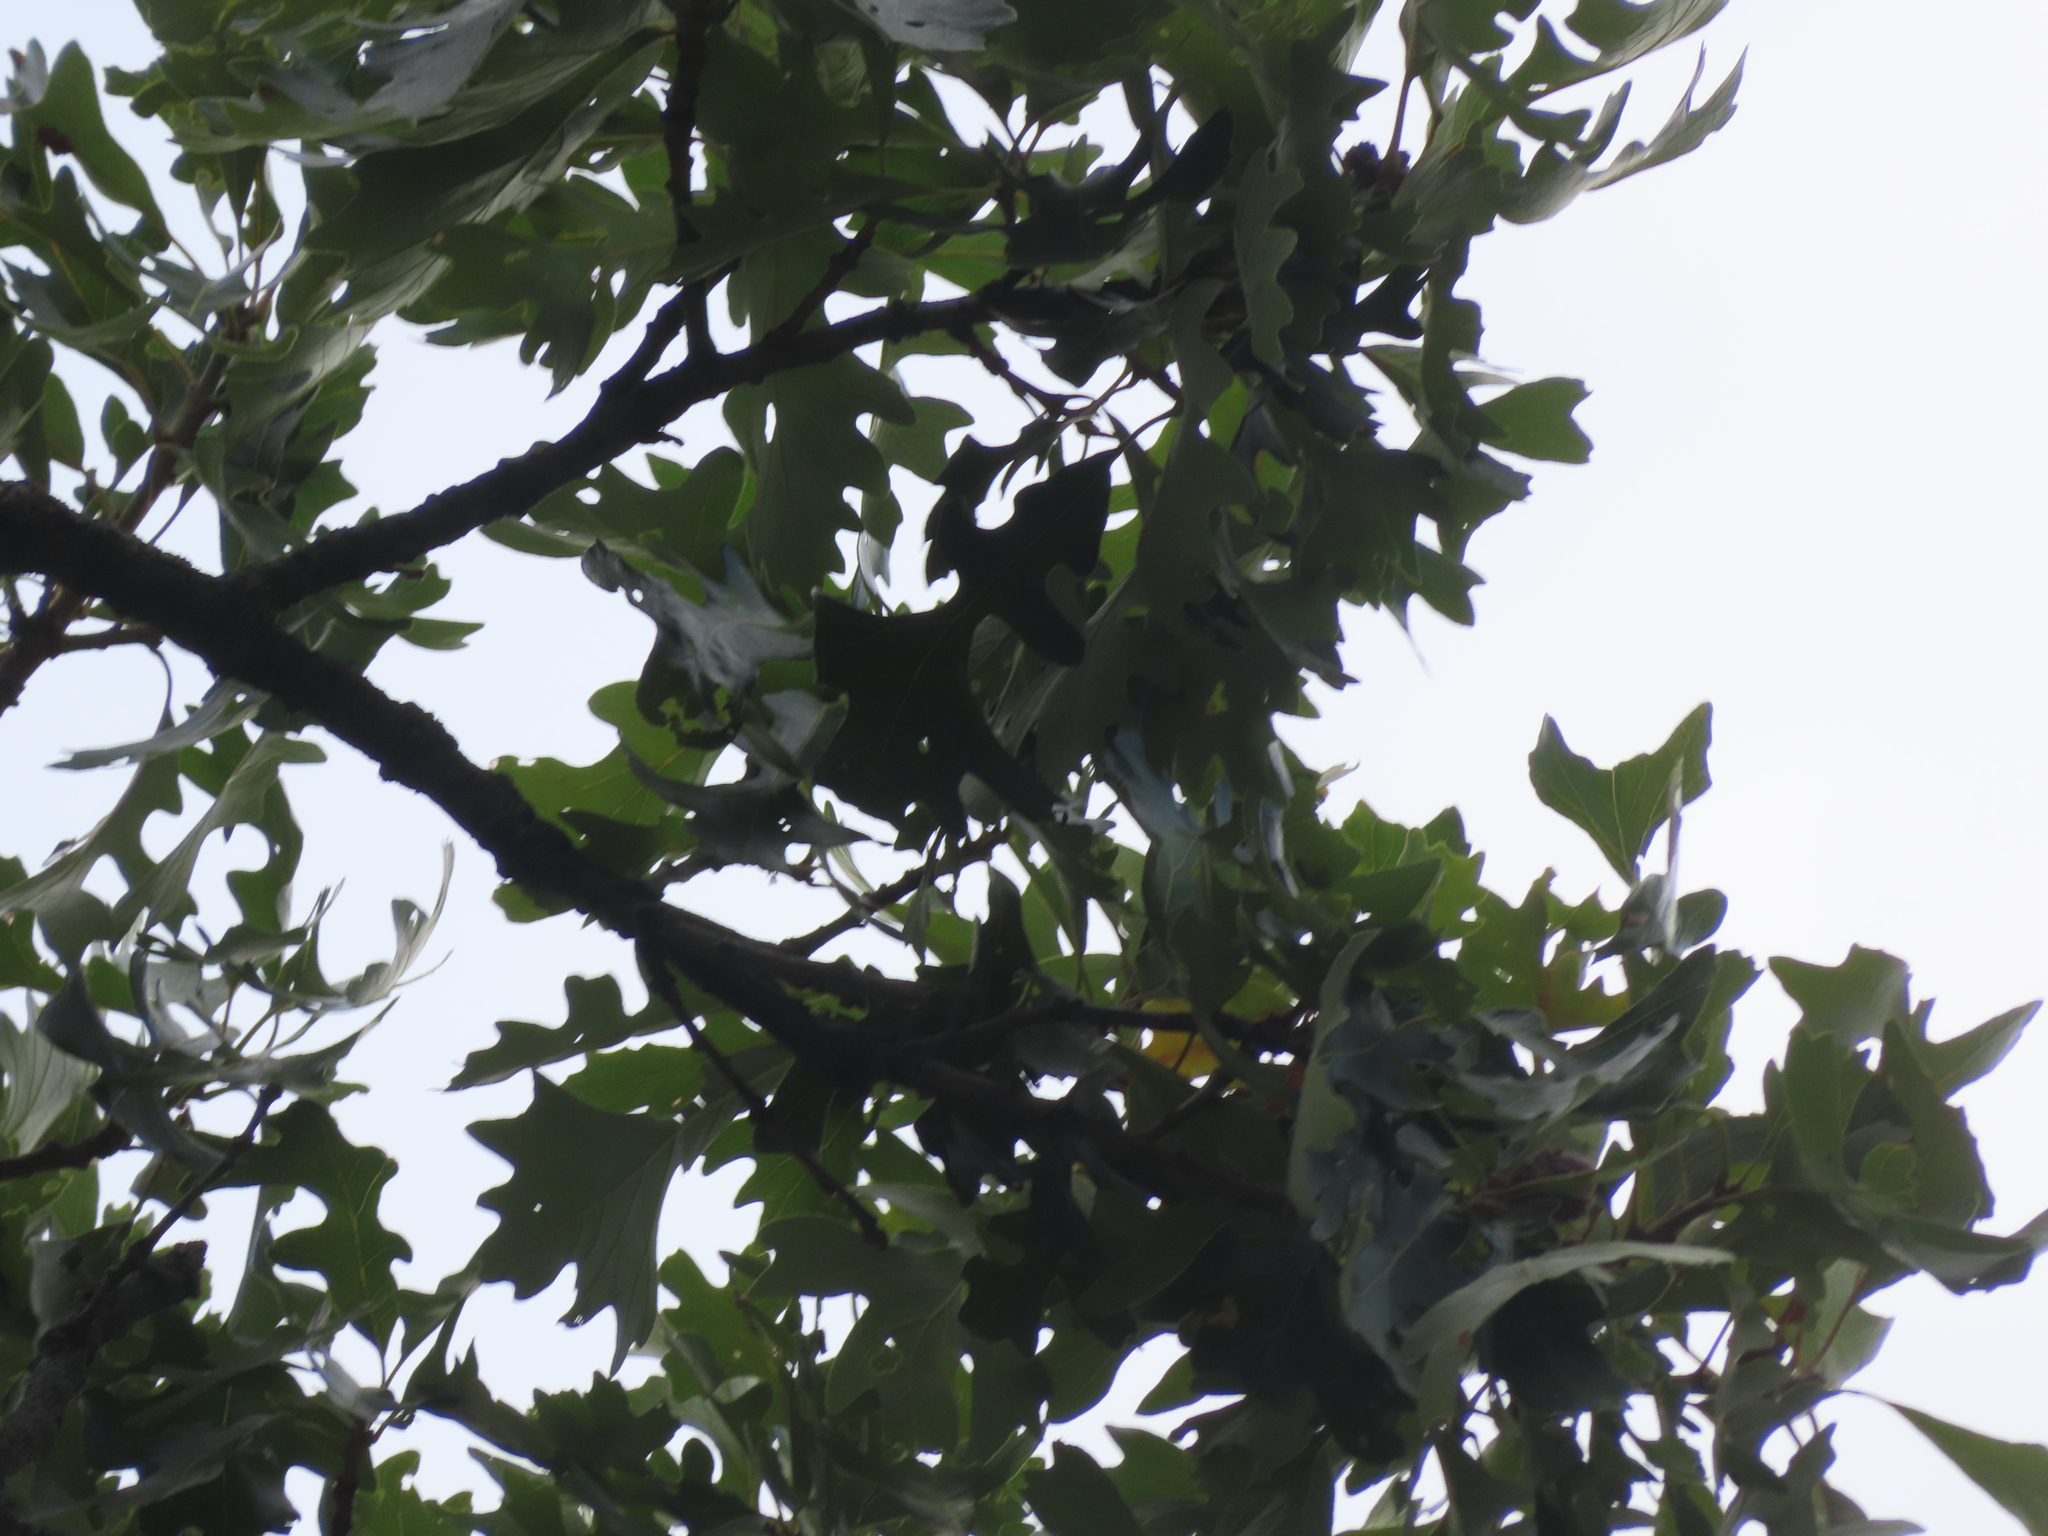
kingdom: Plantae
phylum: Tracheophyta
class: Magnoliopsida
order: Fagales
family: Fagaceae
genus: Quercus
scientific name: Quercus macrocarpa
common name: Bur oak
